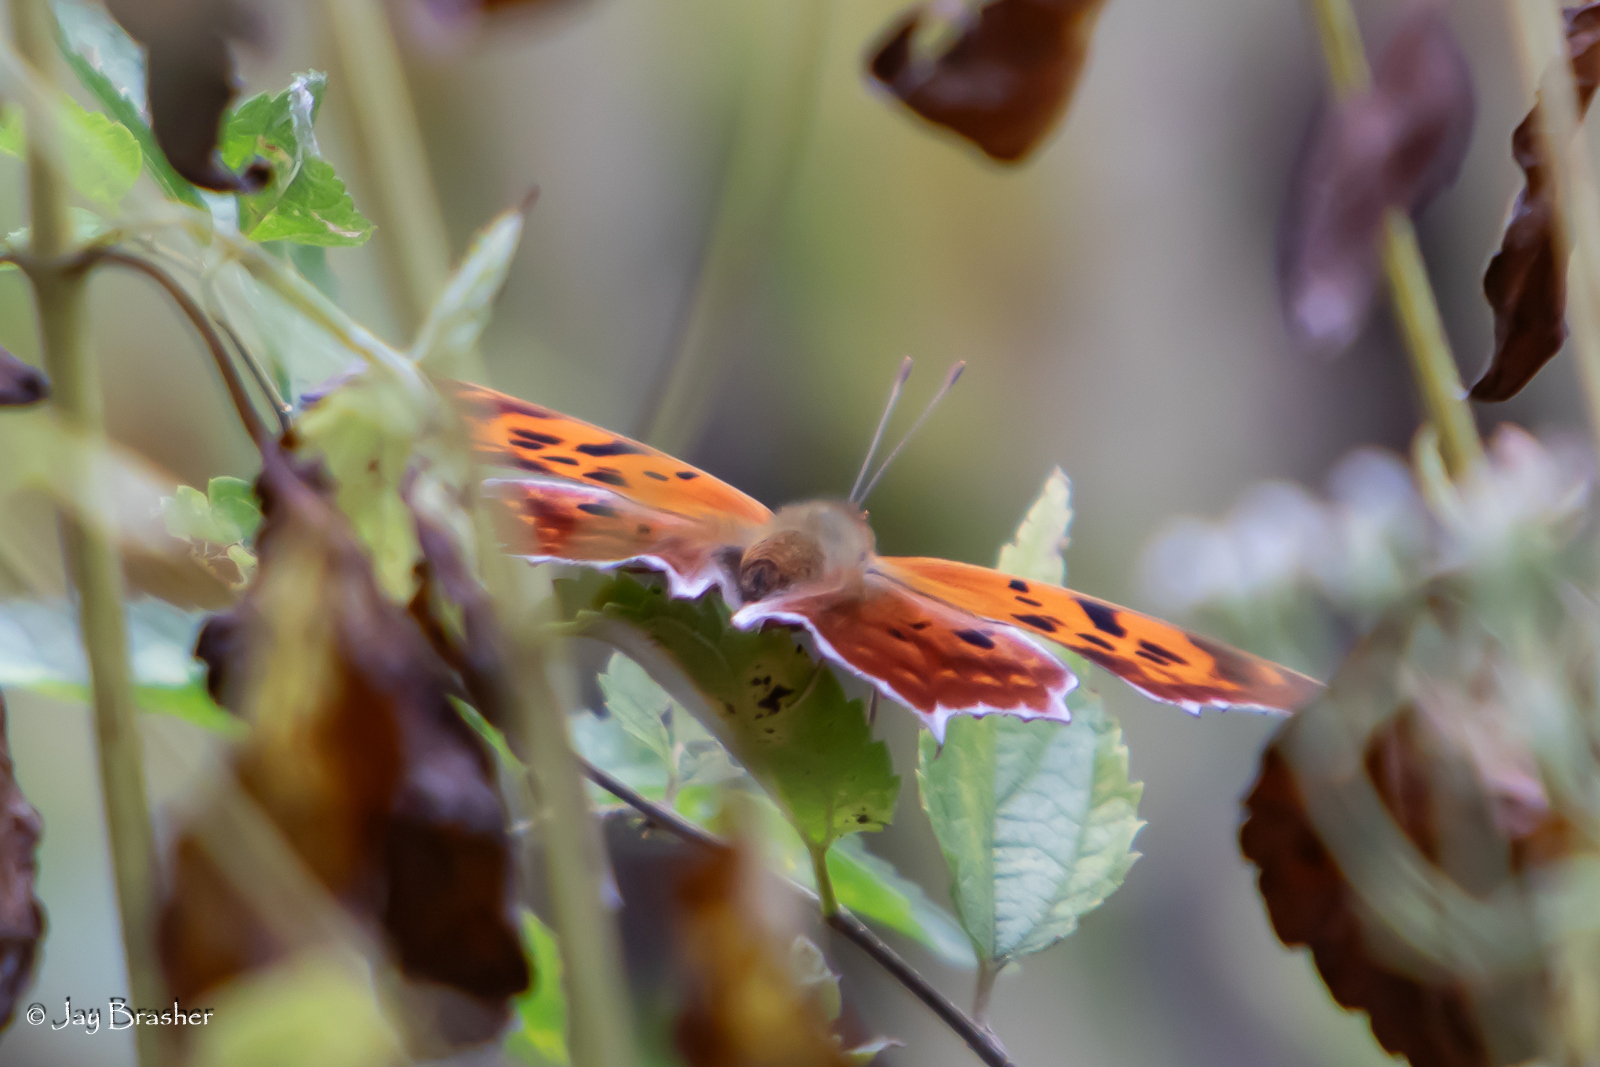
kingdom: Animalia
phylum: Arthropoda
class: Insecta
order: Lepidoptera
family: Nymphalidae
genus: Polygonia
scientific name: Polygonia interrogationis
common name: Question mark
